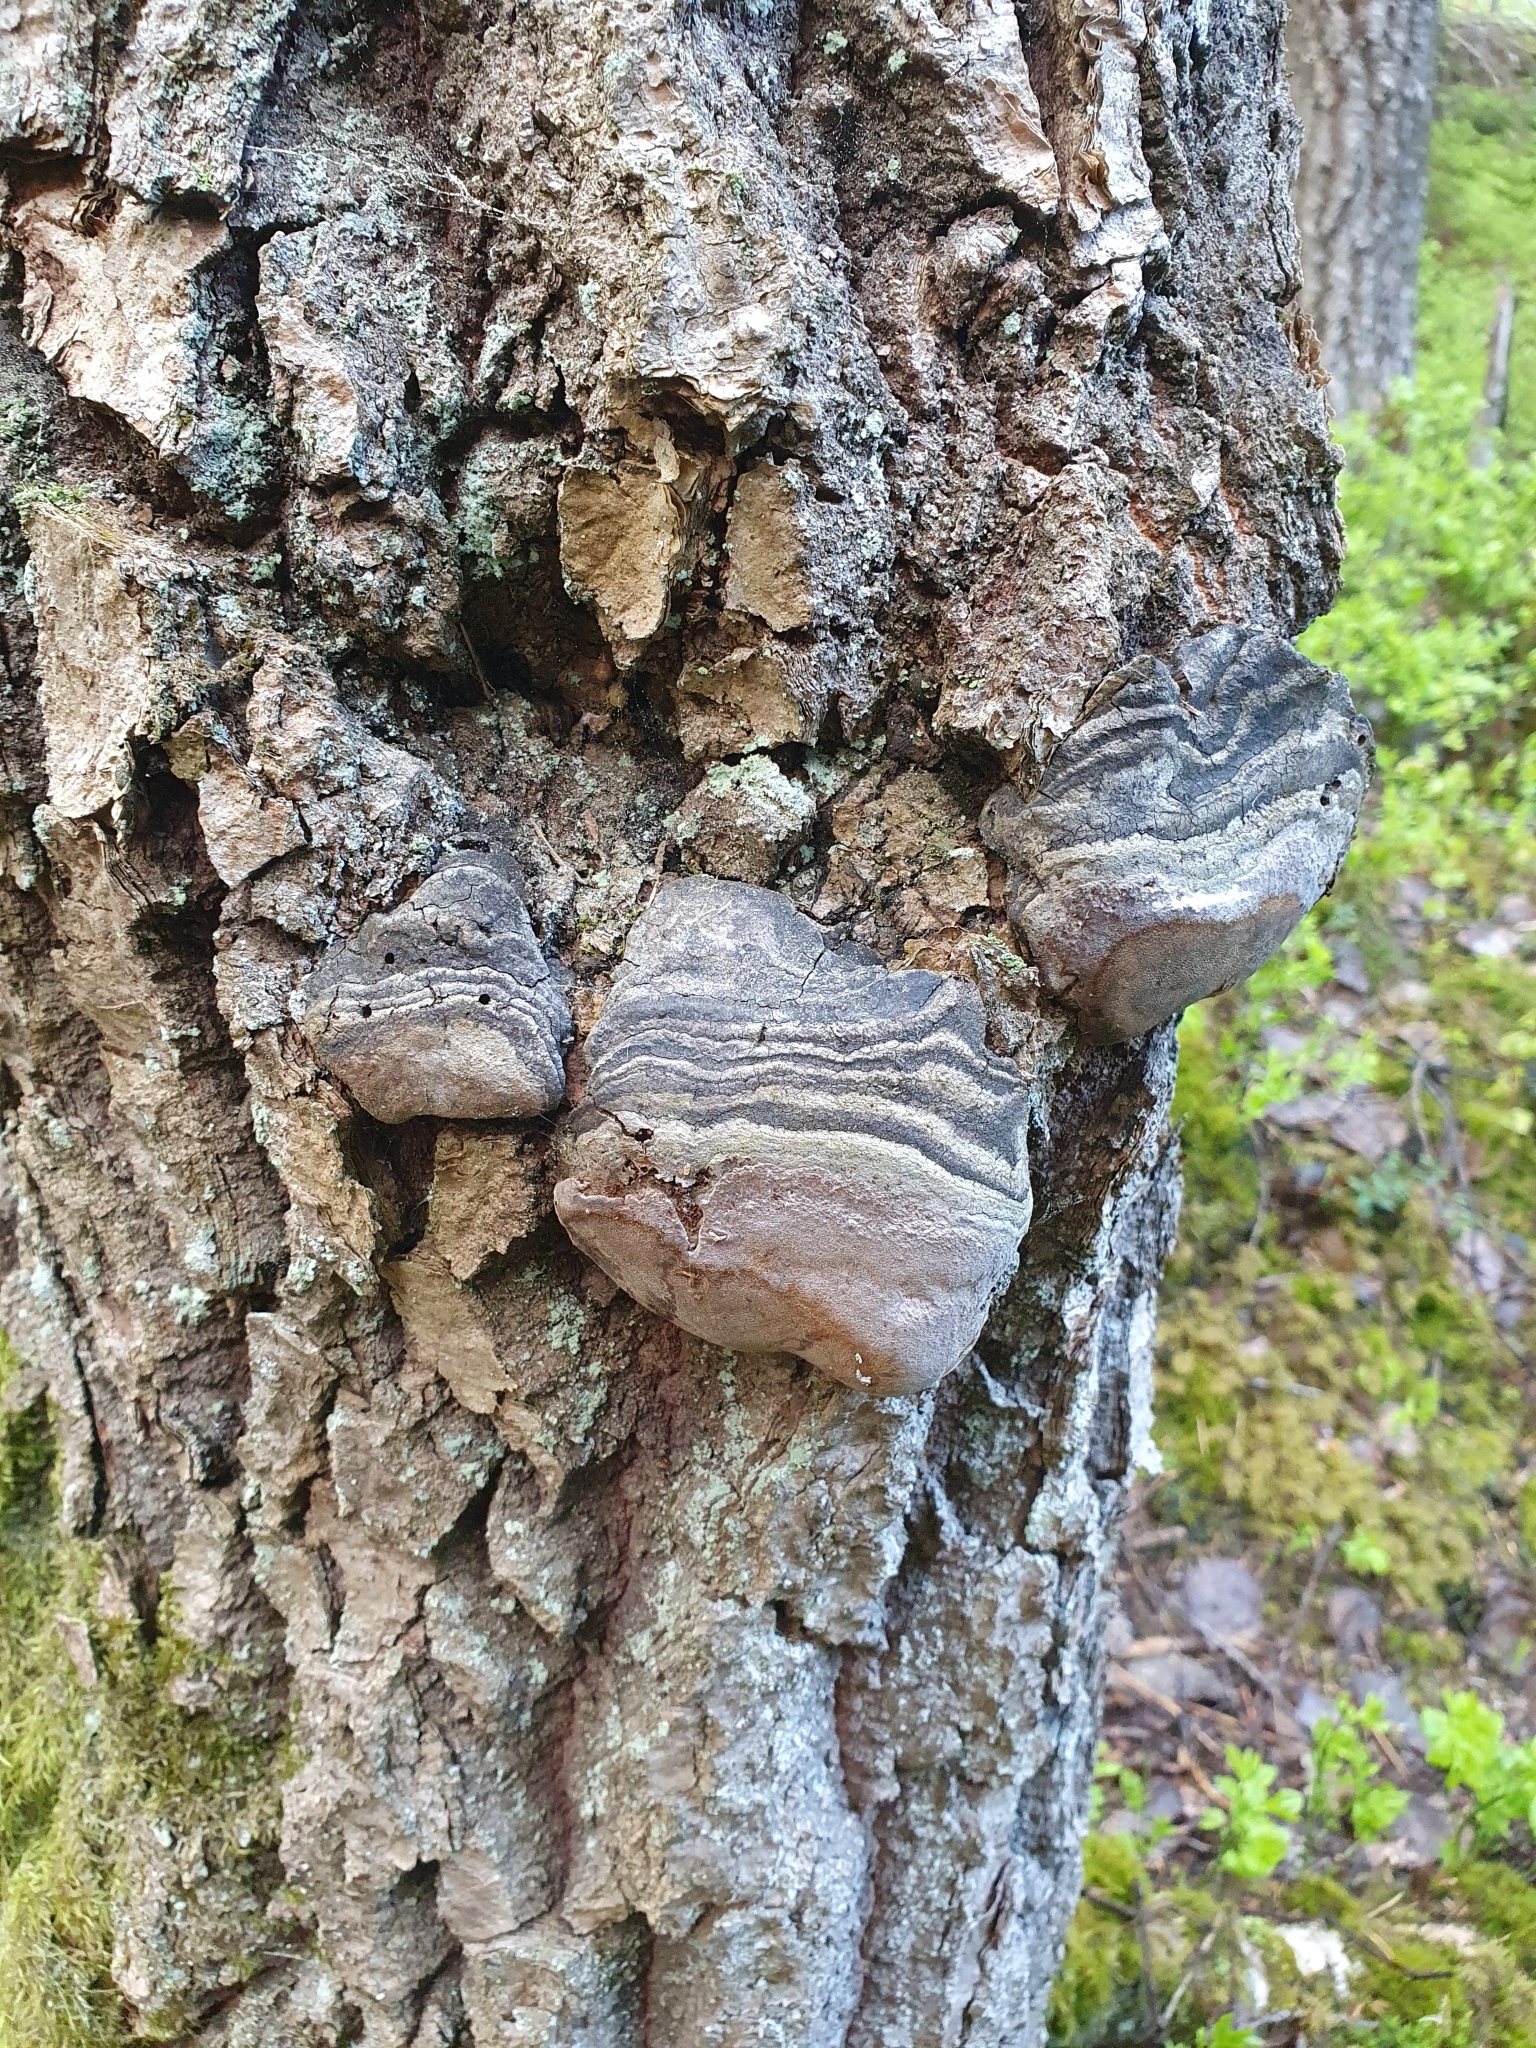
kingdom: Fungi
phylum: Basidiomycota
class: Agaricomycetes
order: Hymenochaetales
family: Hymenochaetaceae
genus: Phellinus
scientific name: Phellinus tremulae
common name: Aspen bracket
